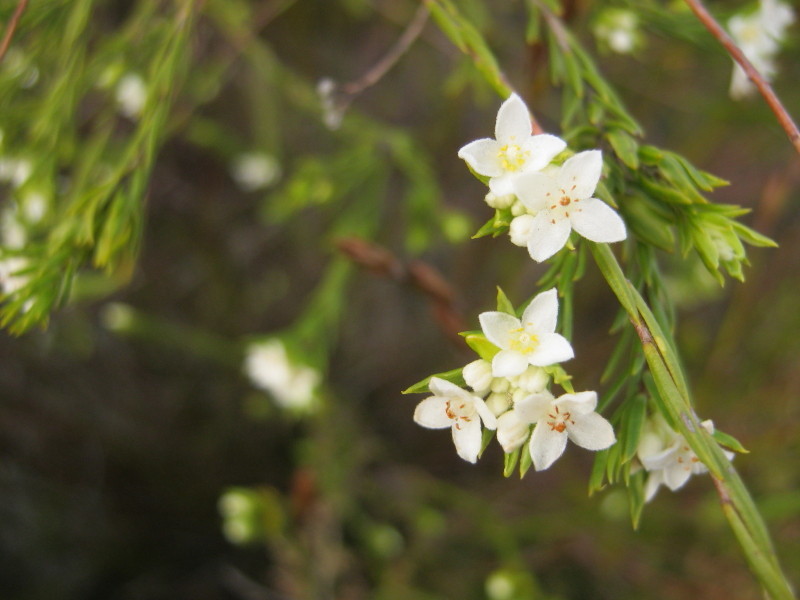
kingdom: Plantae
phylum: Tracheophyta
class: Magnoliopsida
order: Malvales
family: Thymelaeaceae
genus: Lachnaea
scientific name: Lachnaea diosmoides
